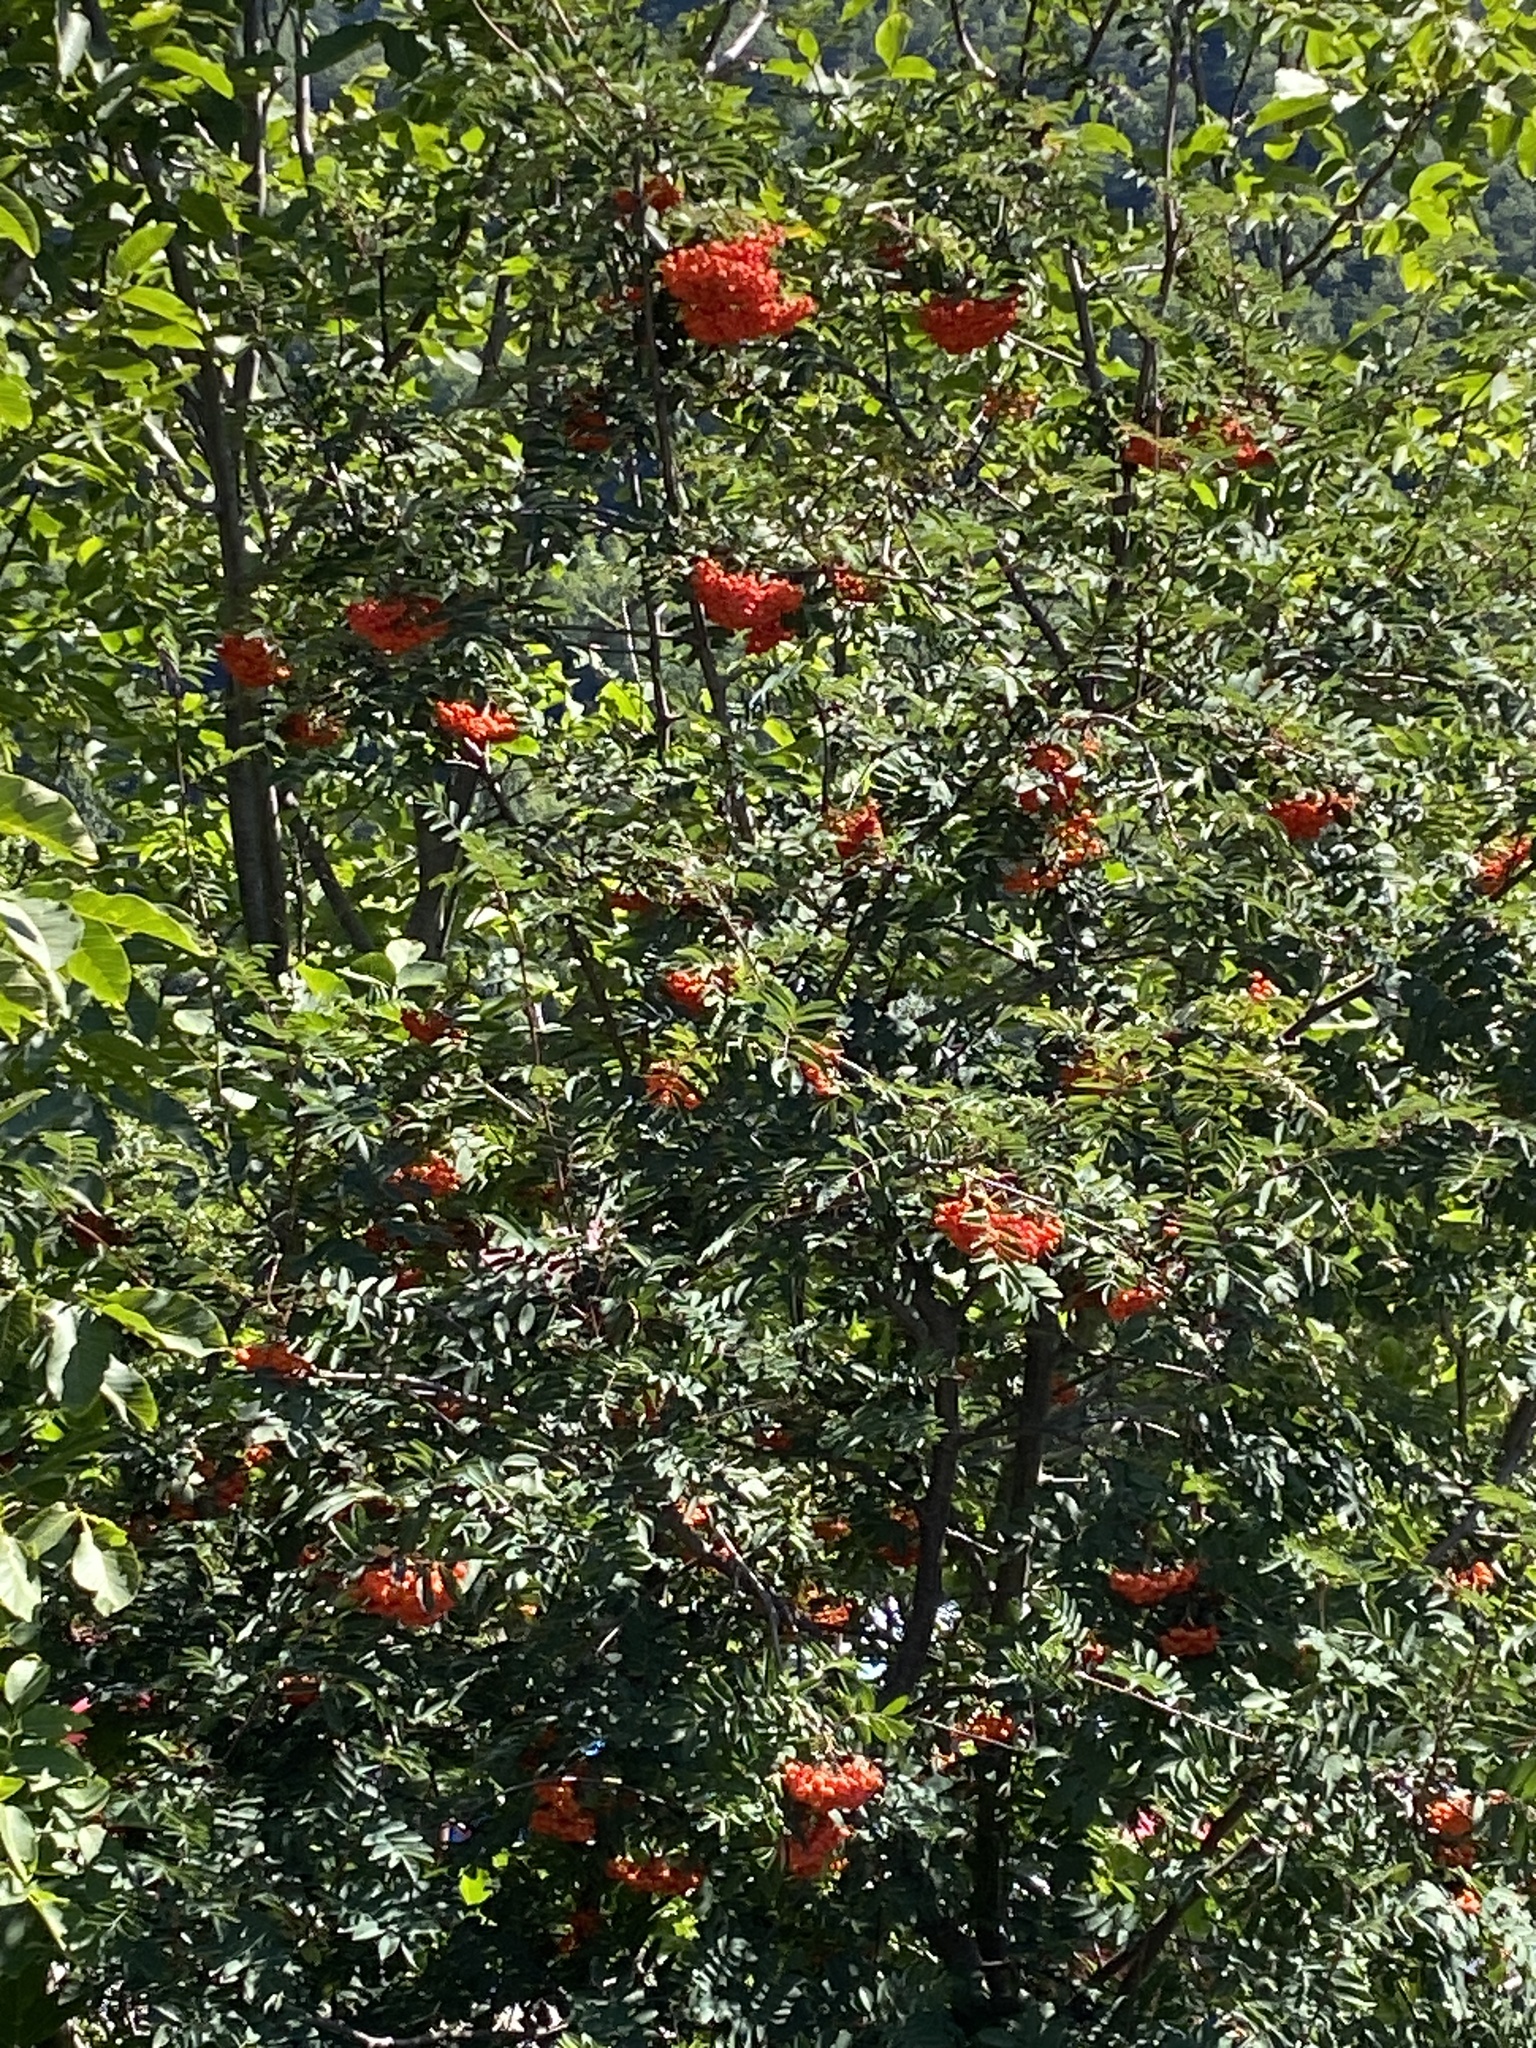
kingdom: Plantae
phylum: Tracheophyta
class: Magnoliopsida
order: Rosales
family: Rosaceae
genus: Sorbus
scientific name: Sorbus aucuparia
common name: Rowan
